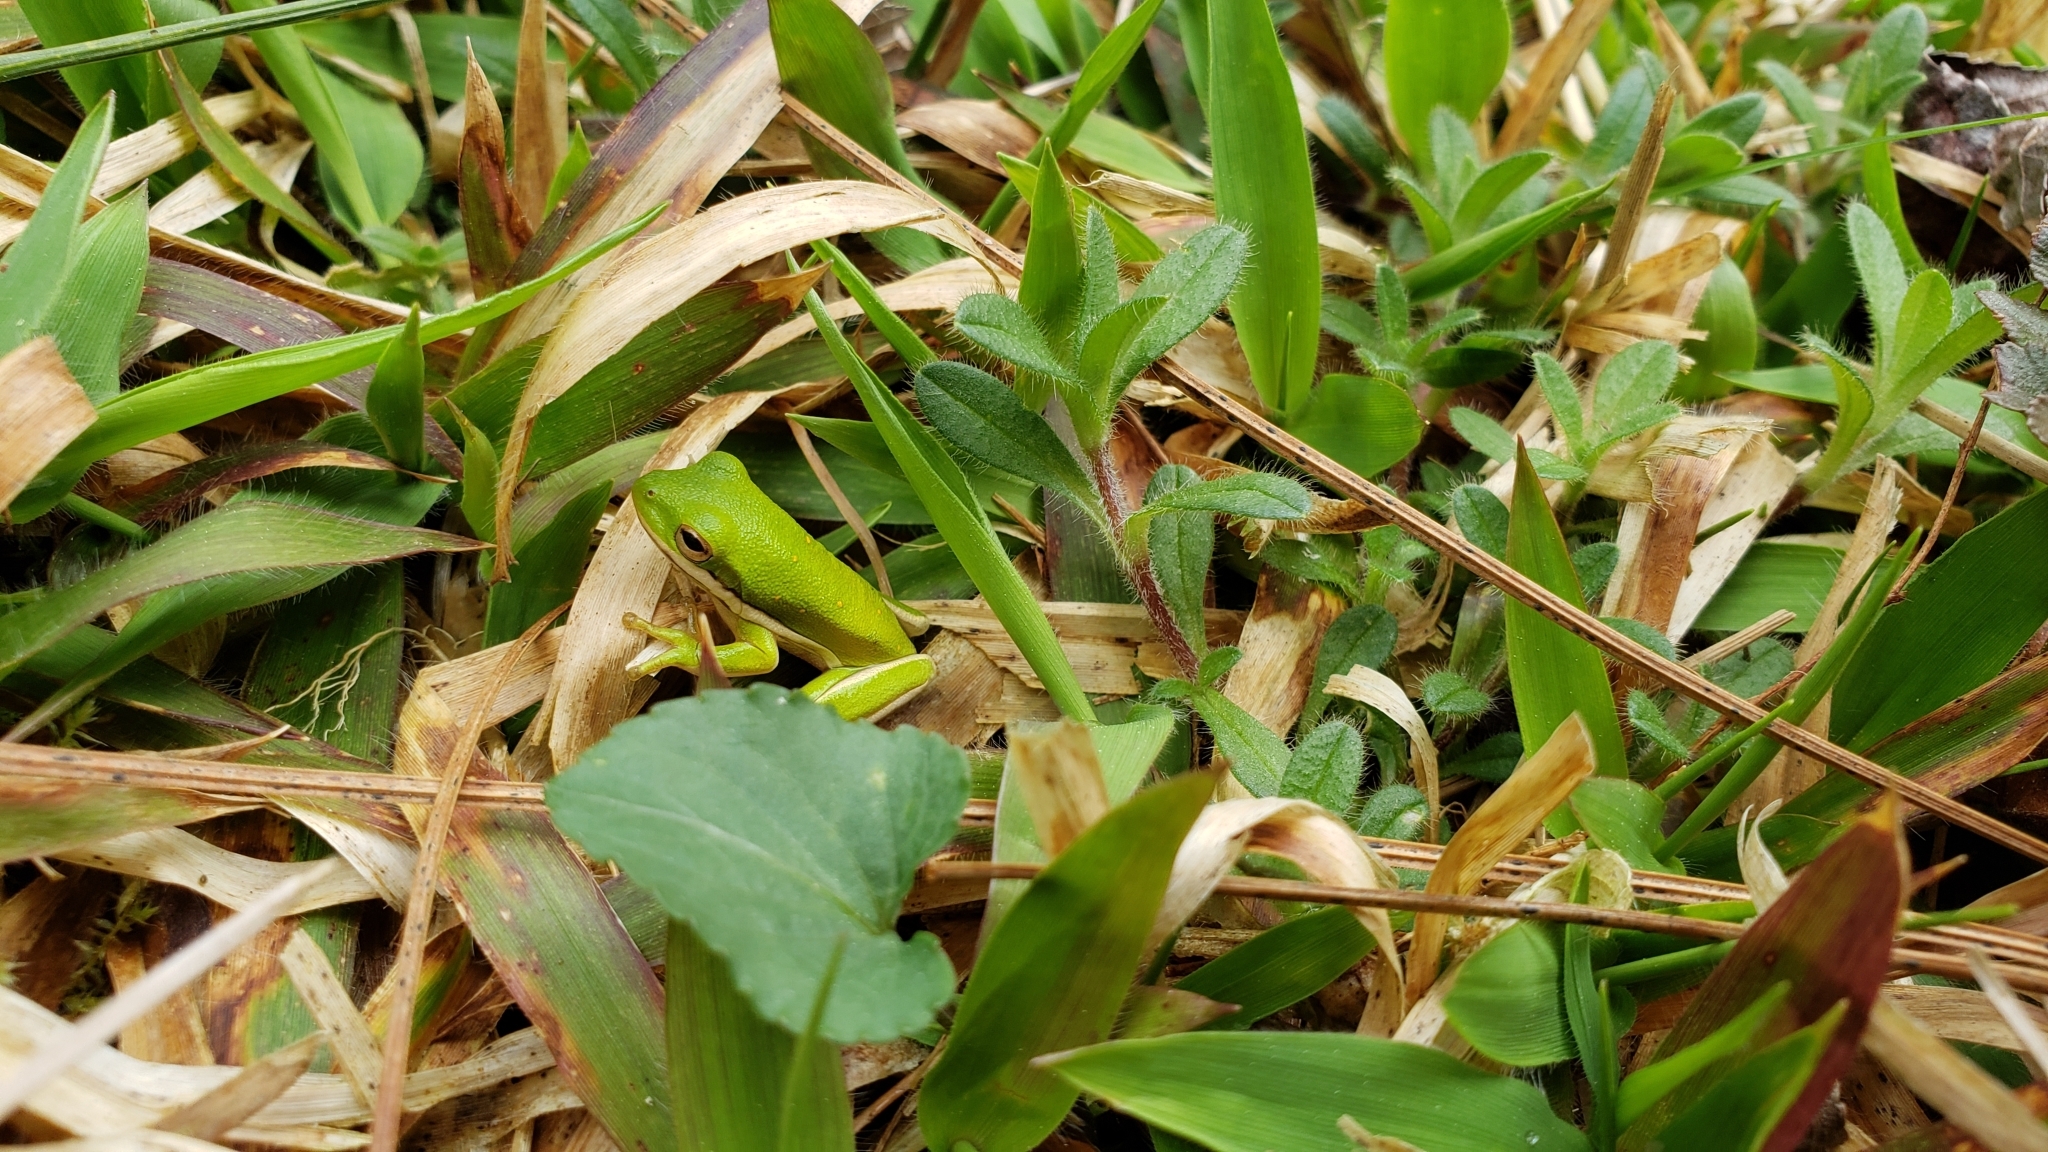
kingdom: Animalia
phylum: Chordata
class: Amphibia
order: Anura
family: Hylidae
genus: Dryophytes
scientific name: Dryophytes cinereus
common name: Green treefrog
